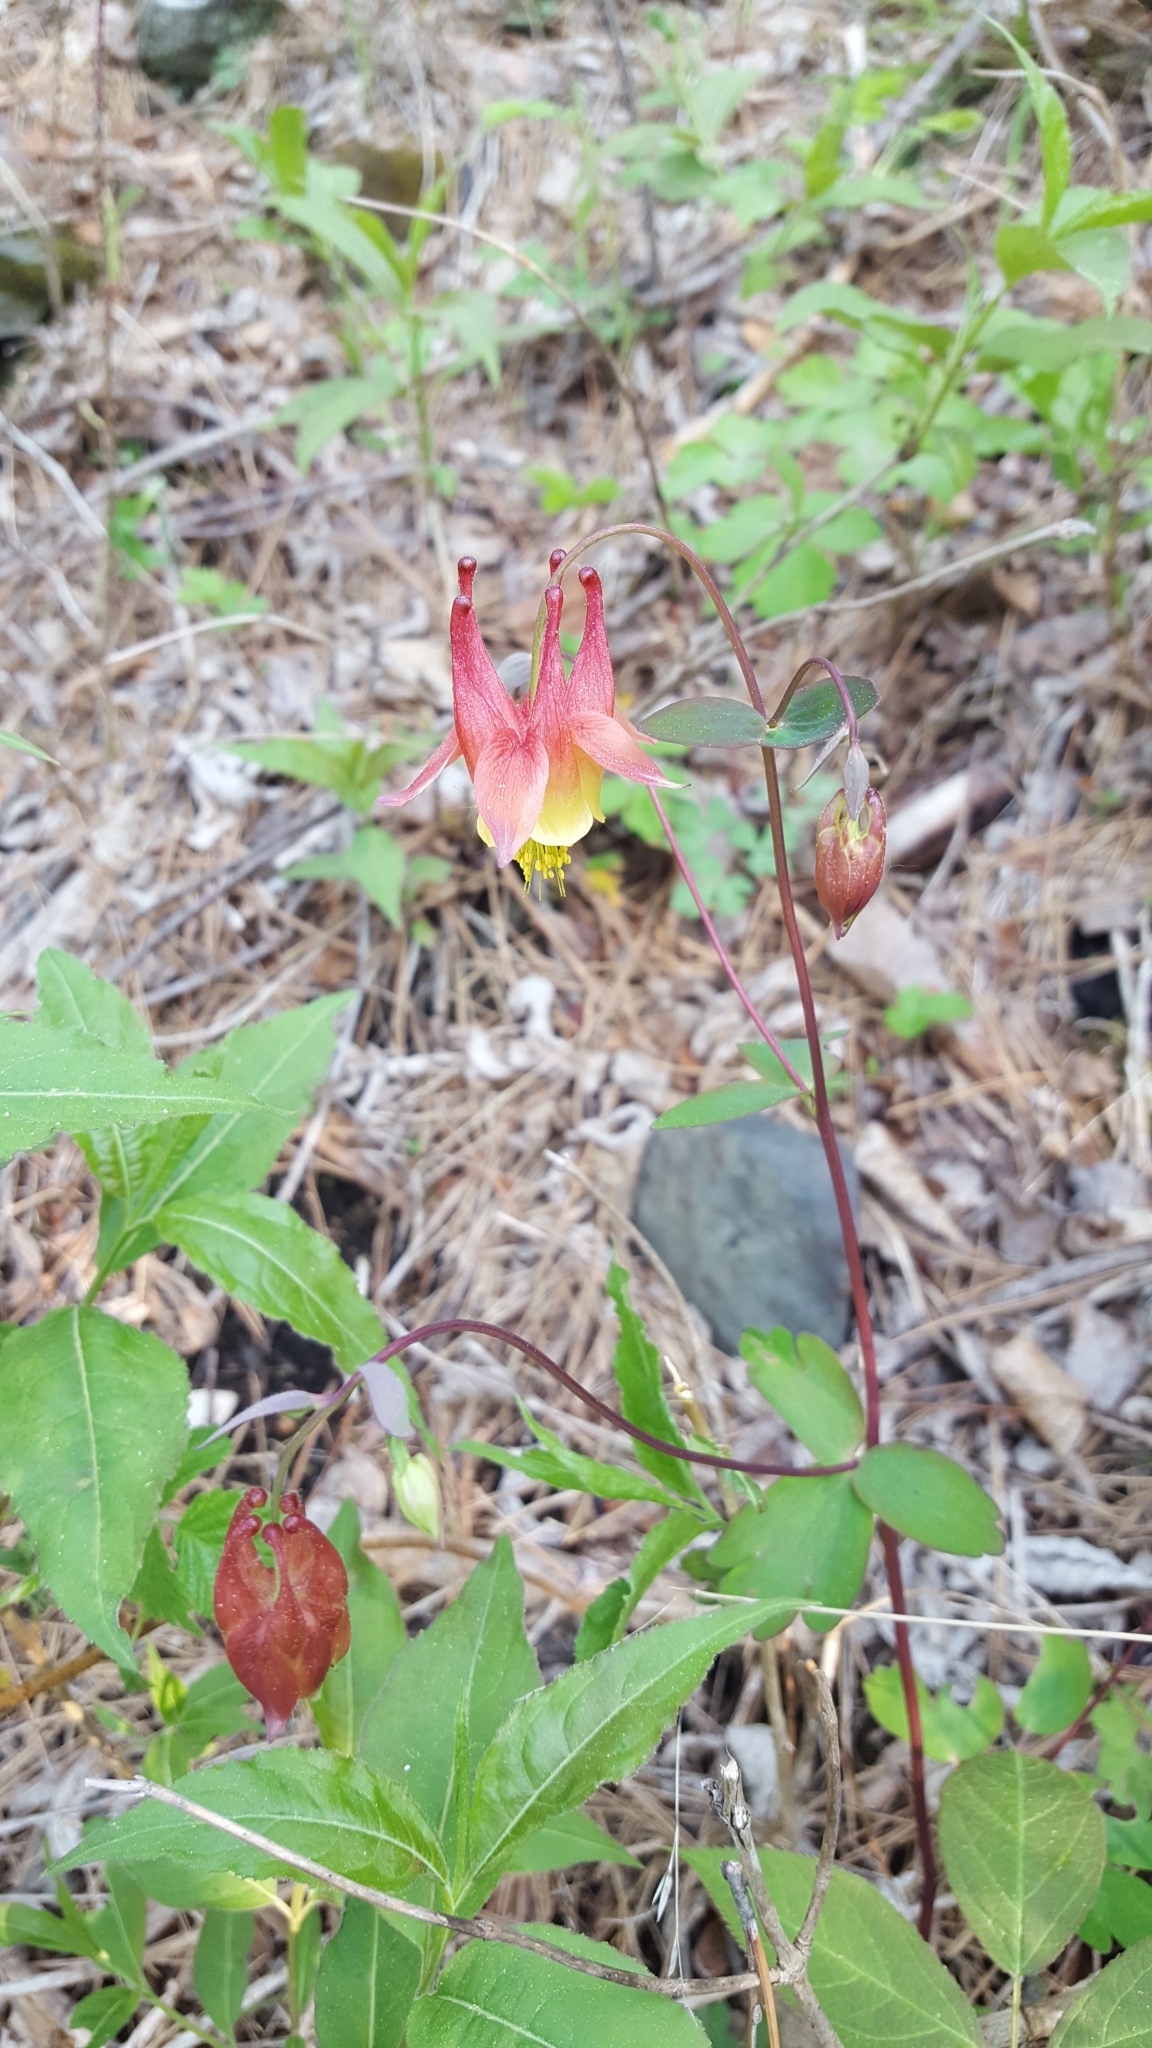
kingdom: Plantae
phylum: Tracheophyta
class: Magnoliopsida
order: Ranunculales
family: Ranunculaceae
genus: Aquilegia
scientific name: Aquilegia canadensis
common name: American columbine
